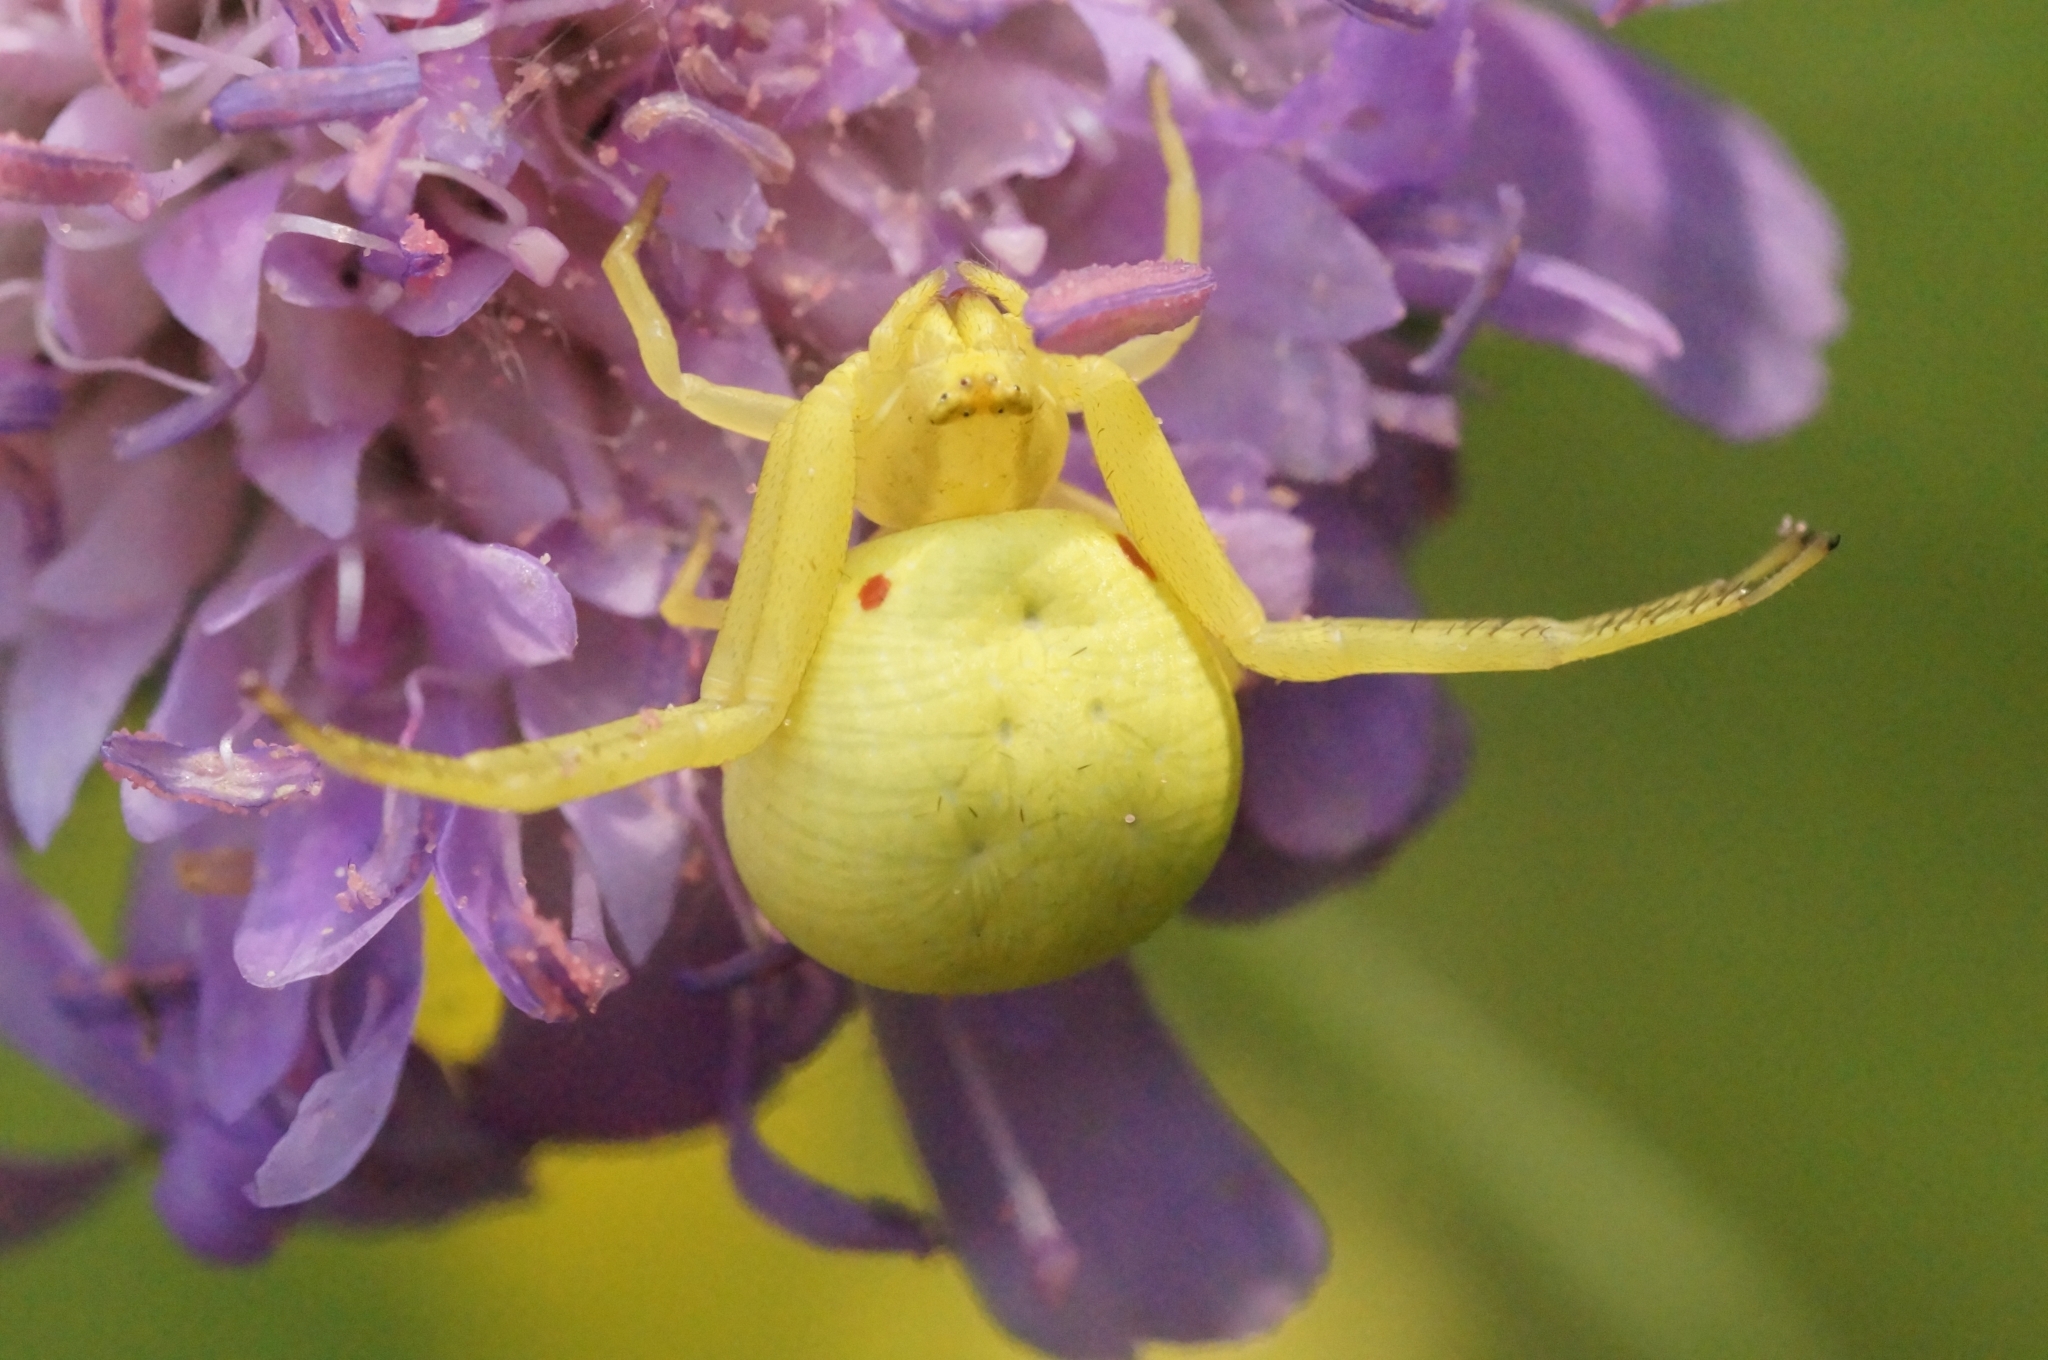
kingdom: Animalia
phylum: Arthropoda
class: Arachnida
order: Araneae
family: Thomisidae
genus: Misumena
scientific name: Misumena vatia
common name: Goldenrod crab spider
